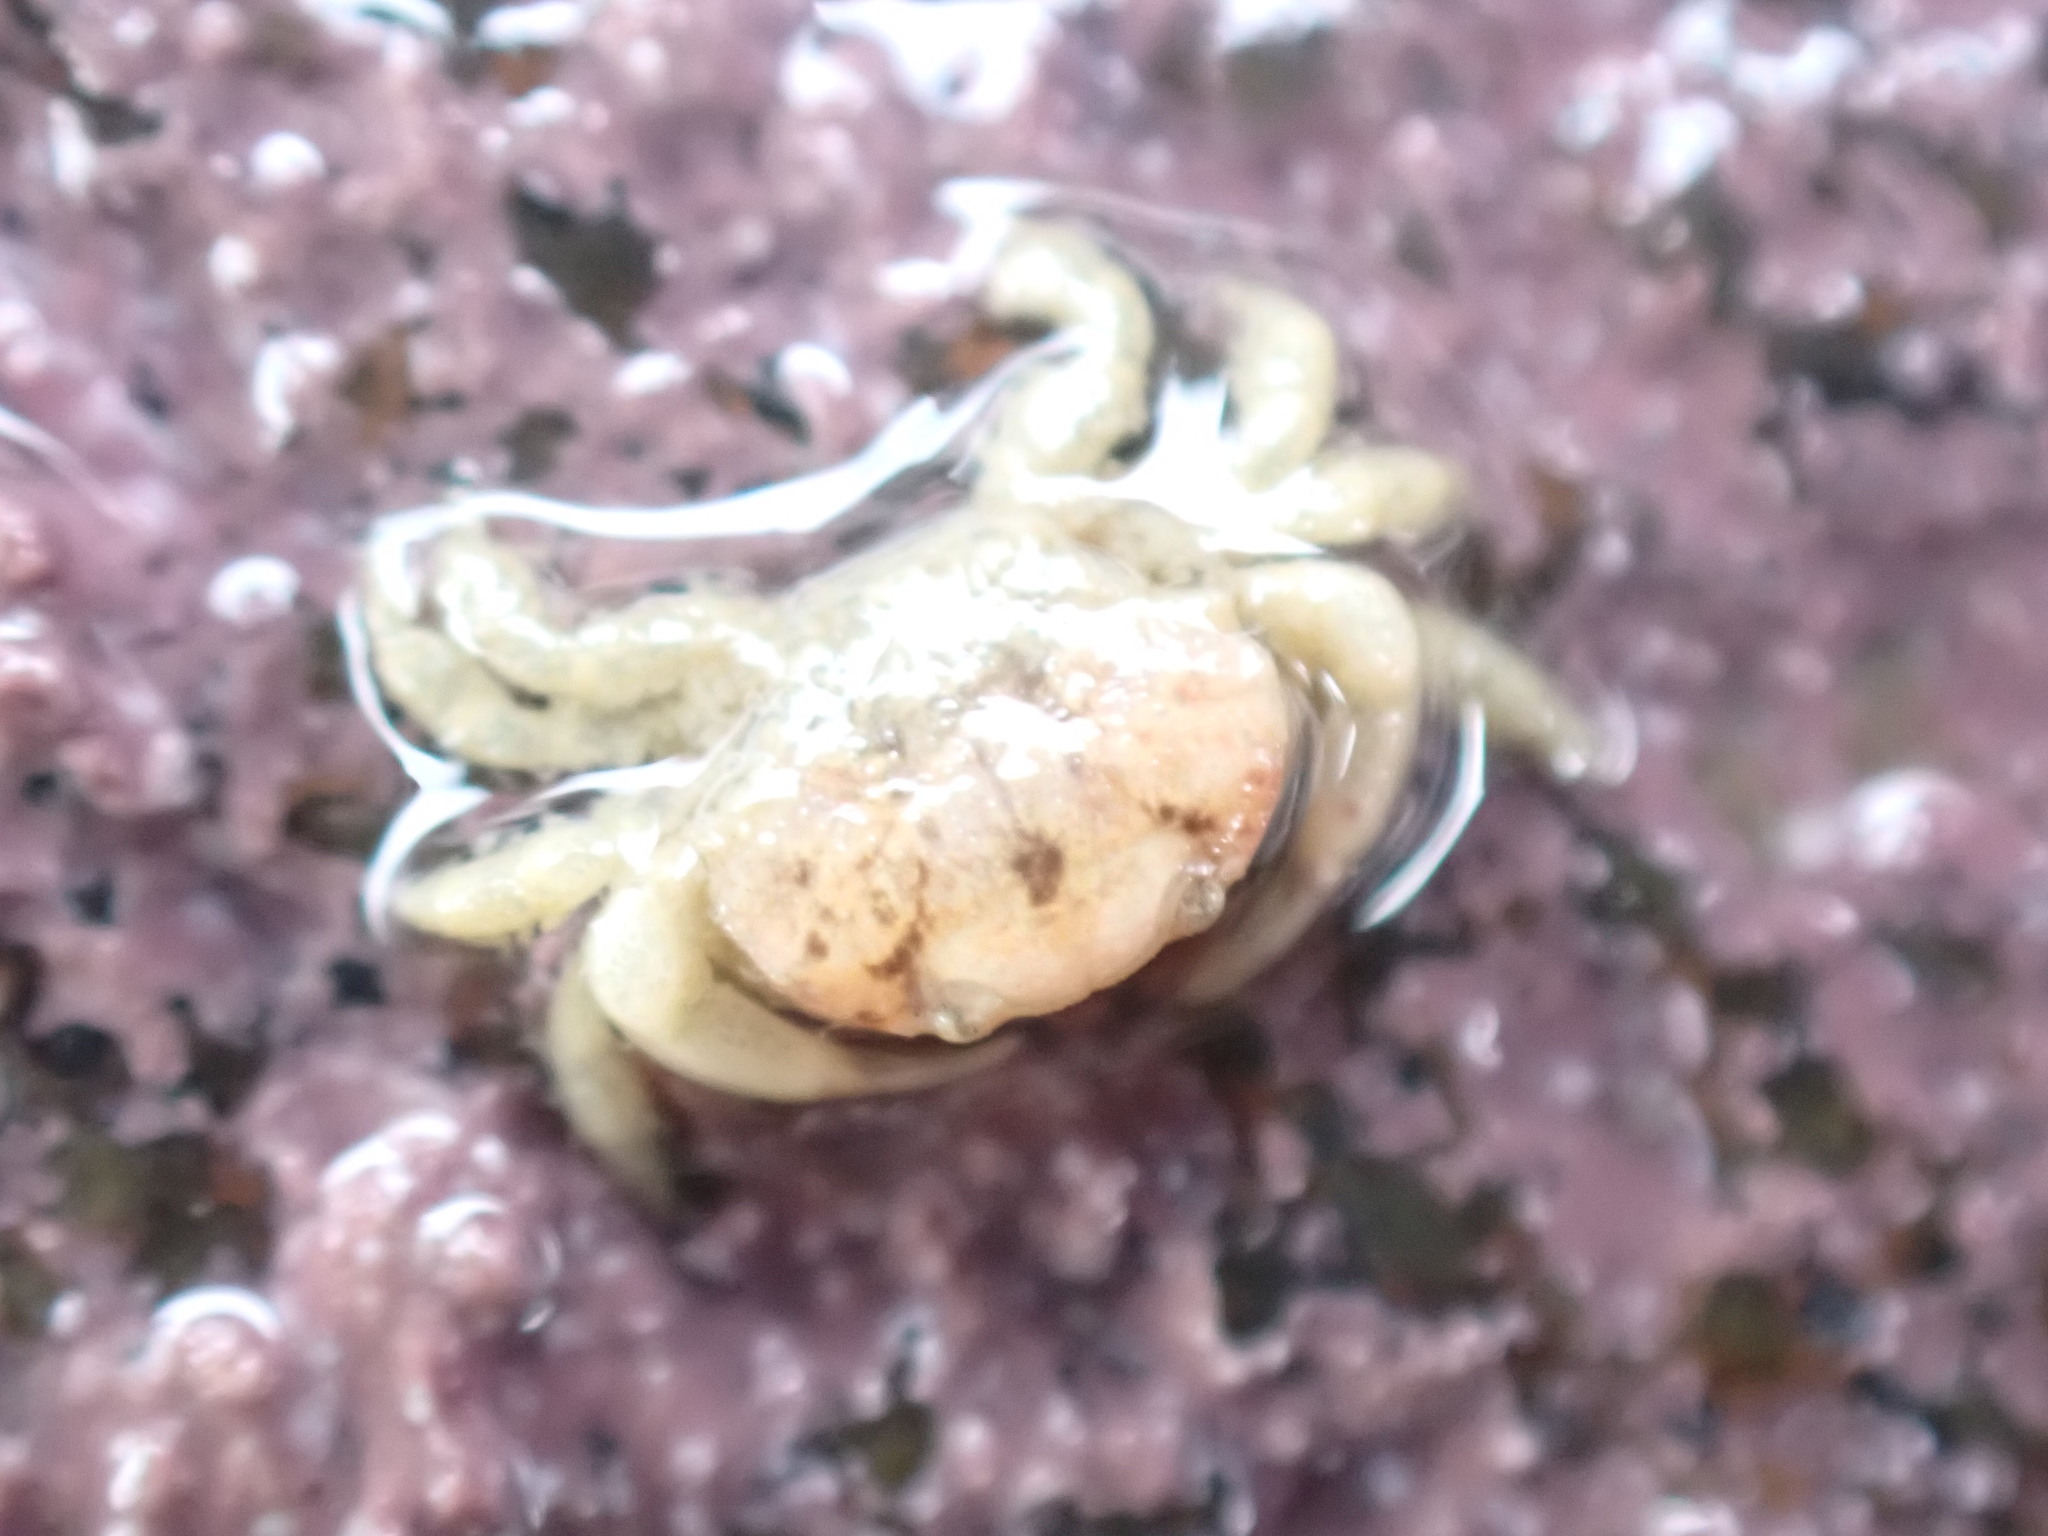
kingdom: Animalia
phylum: Arthropoda
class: Malacostraca
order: Decapoda
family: Heteroziidae
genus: Heterozius
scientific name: Heterozius rotundifrons
